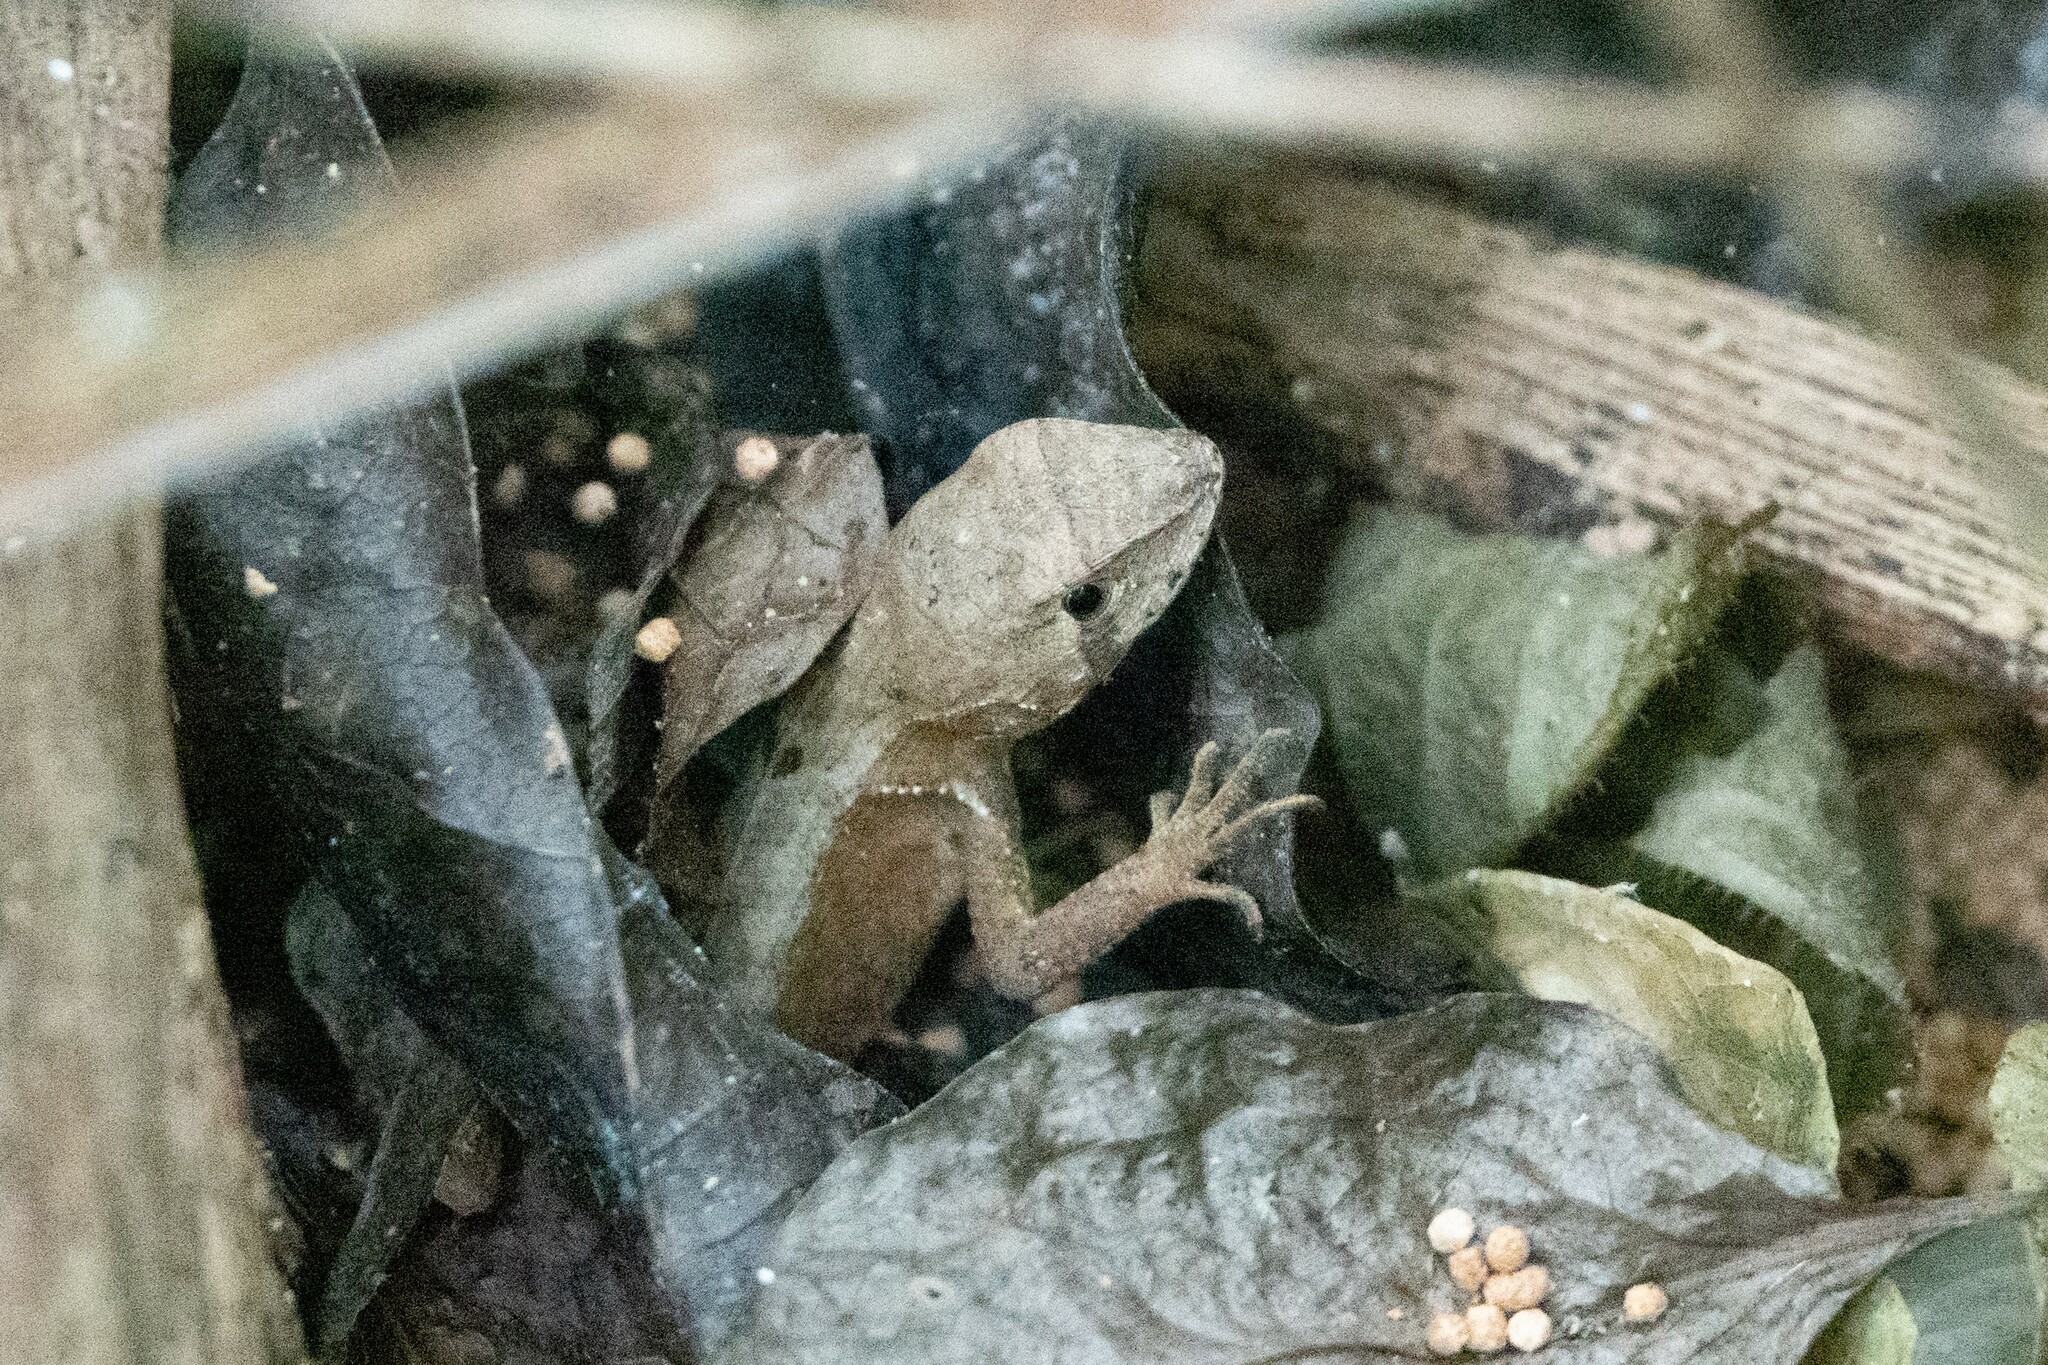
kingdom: Animalia
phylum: Chordata
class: Squamata
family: Tropiduridae
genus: Stenocercus
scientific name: Stenocercus iridescens
